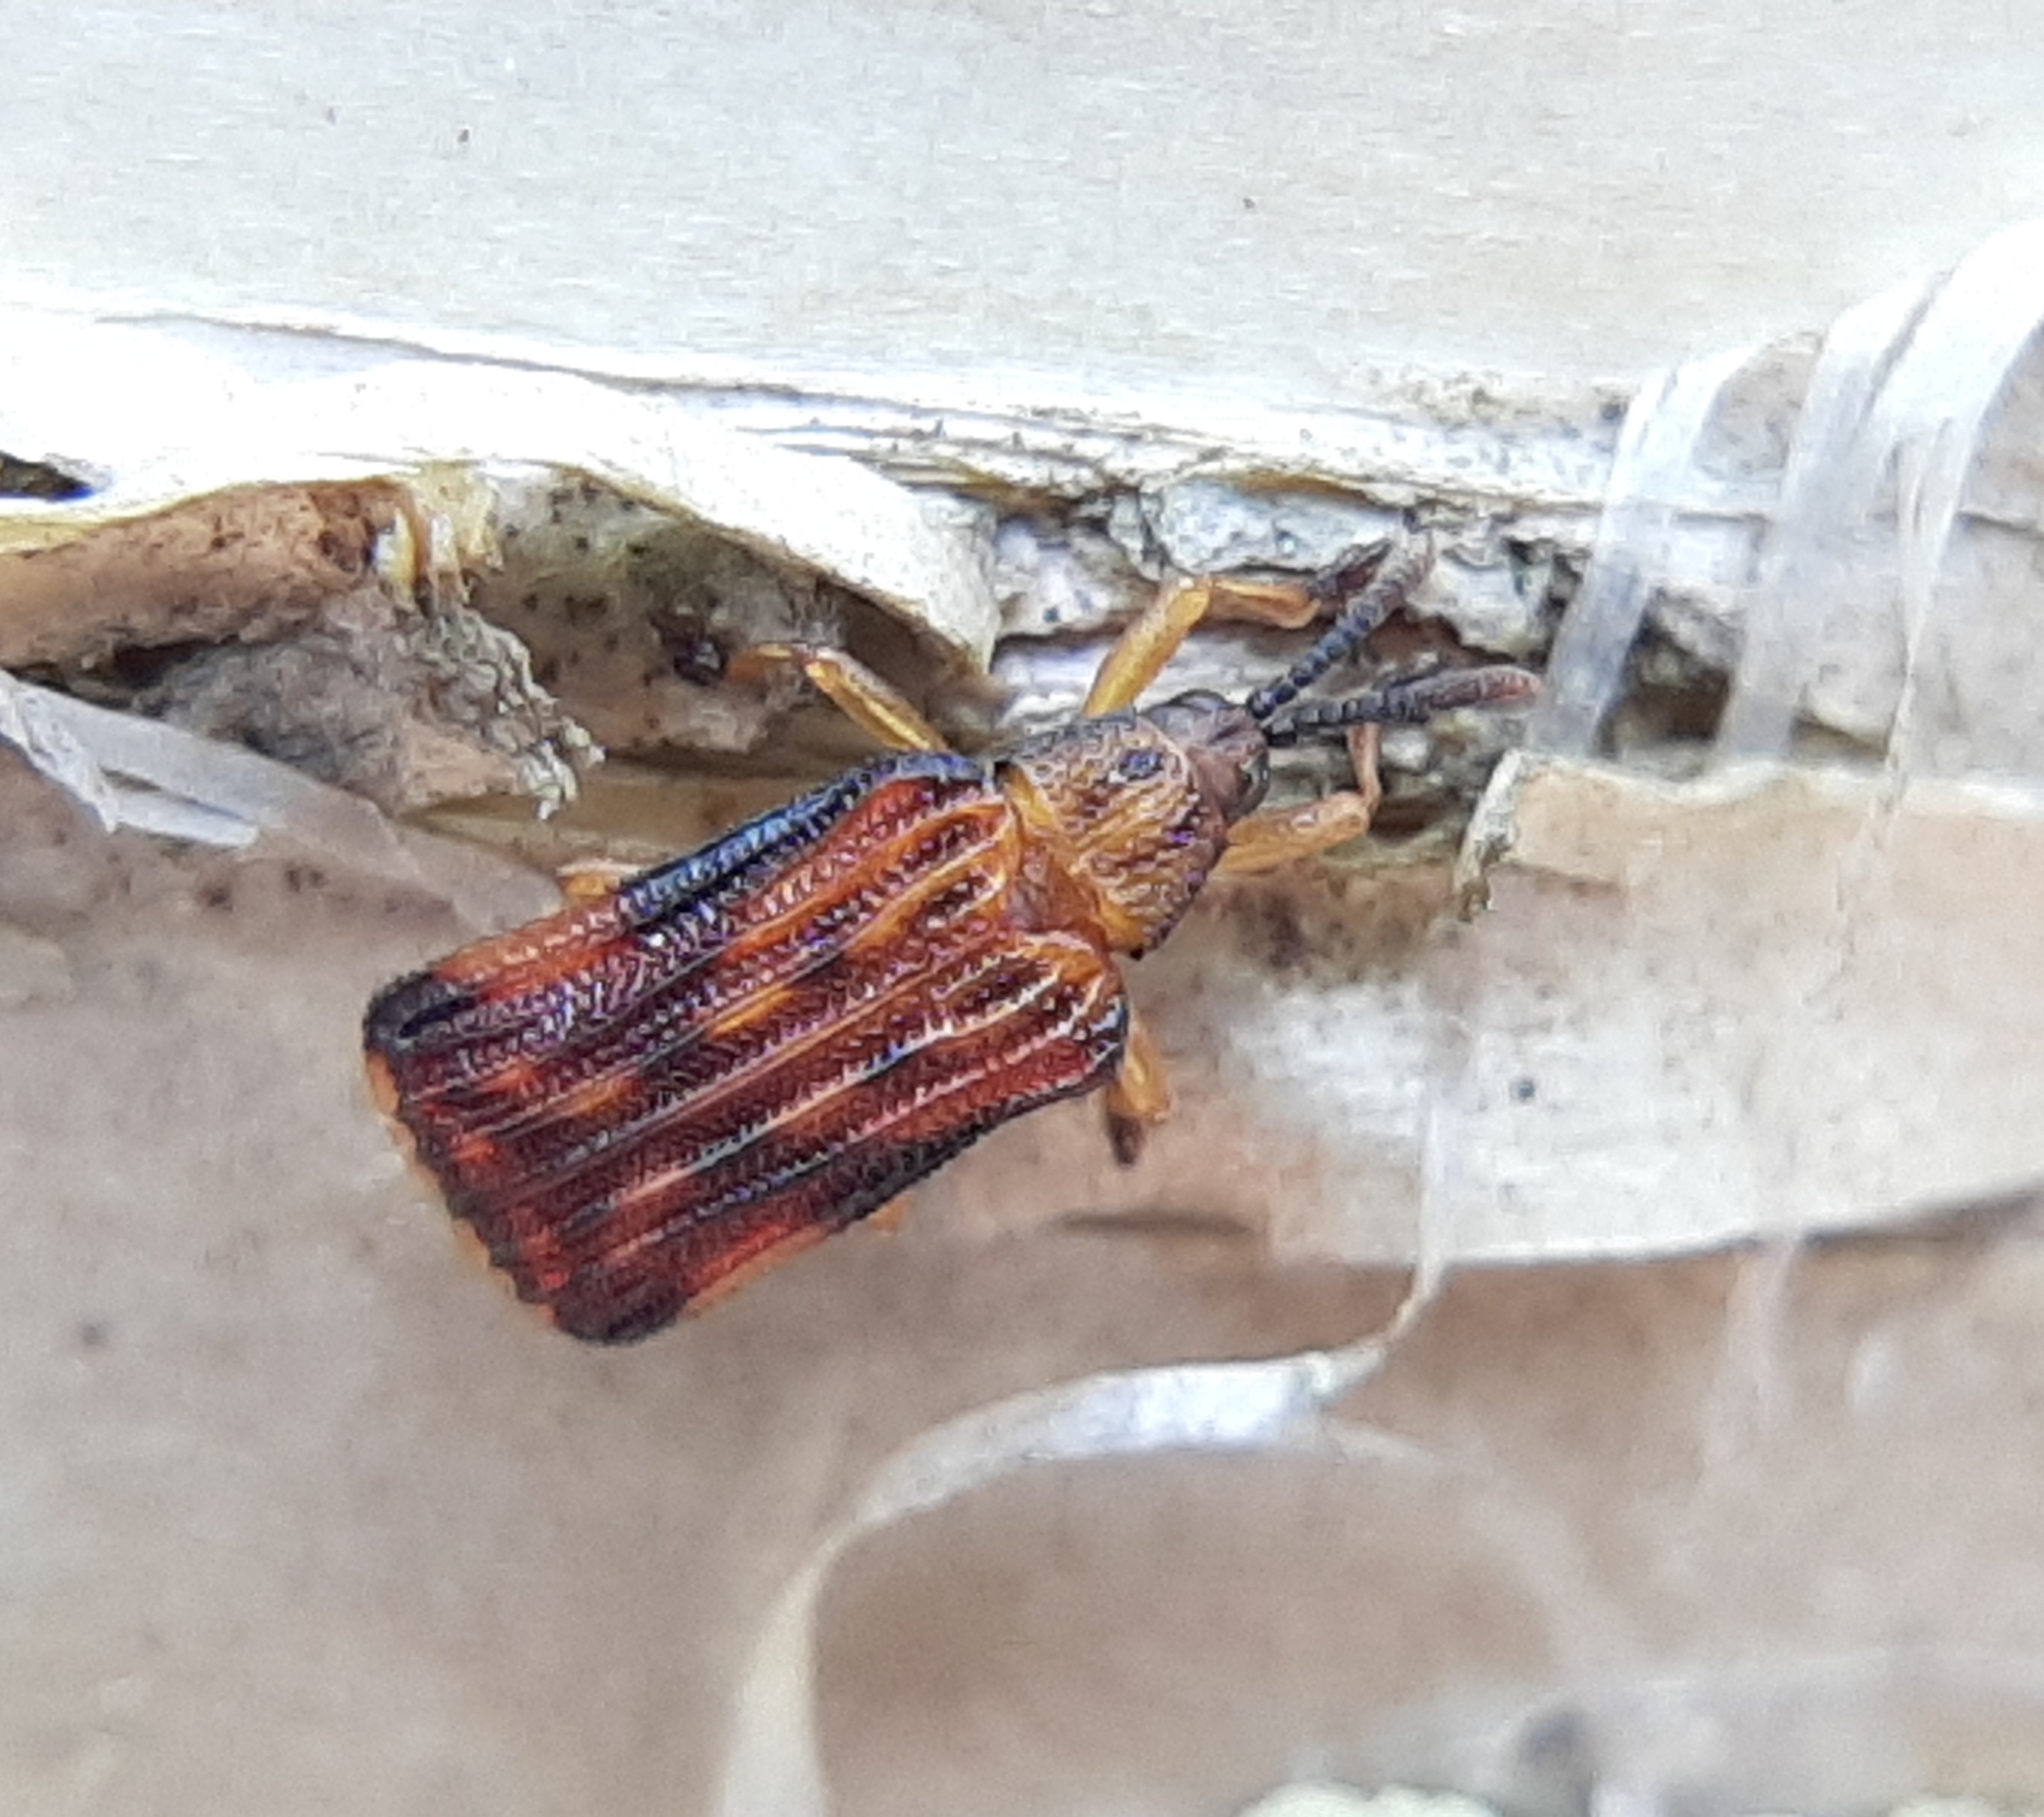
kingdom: Animalia
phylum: Arthropoda
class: Insecta
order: Coleoptera
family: Chrysomelidae
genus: Baliosus
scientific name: Baliosus nervosus
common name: Basswood leaf miner
